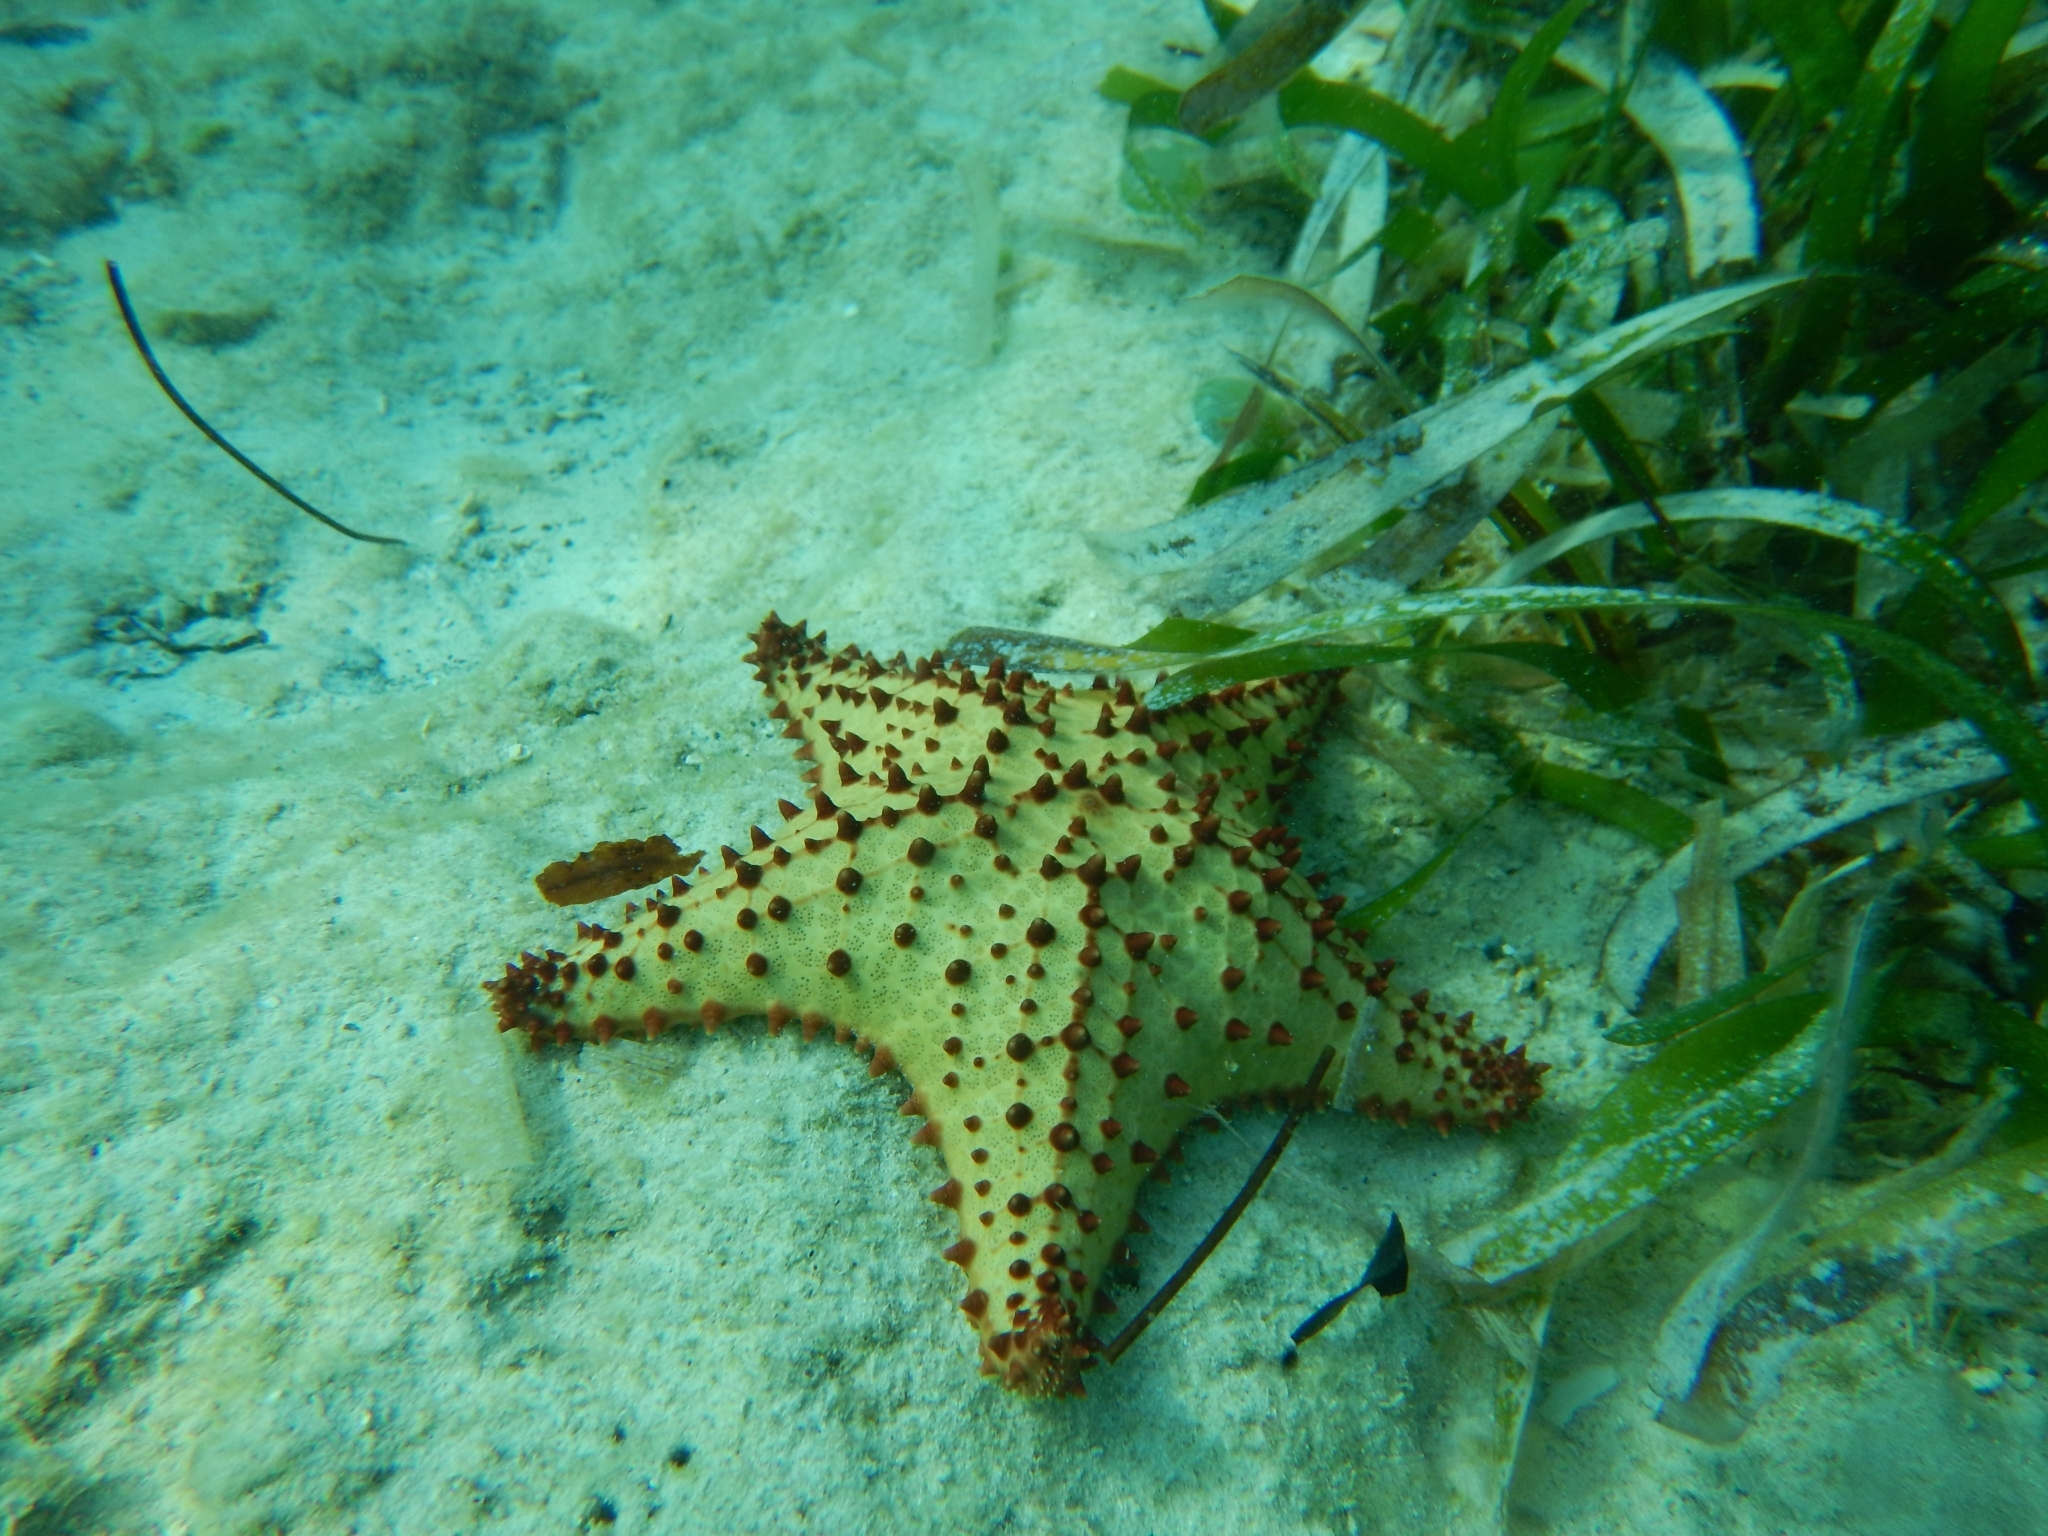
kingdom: Animalia
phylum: Echinodermata
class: Asteroidea
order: Valvatida
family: Oreasteridae
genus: Oreaster
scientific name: Oreaster reticulatus
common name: Cushion sea star
